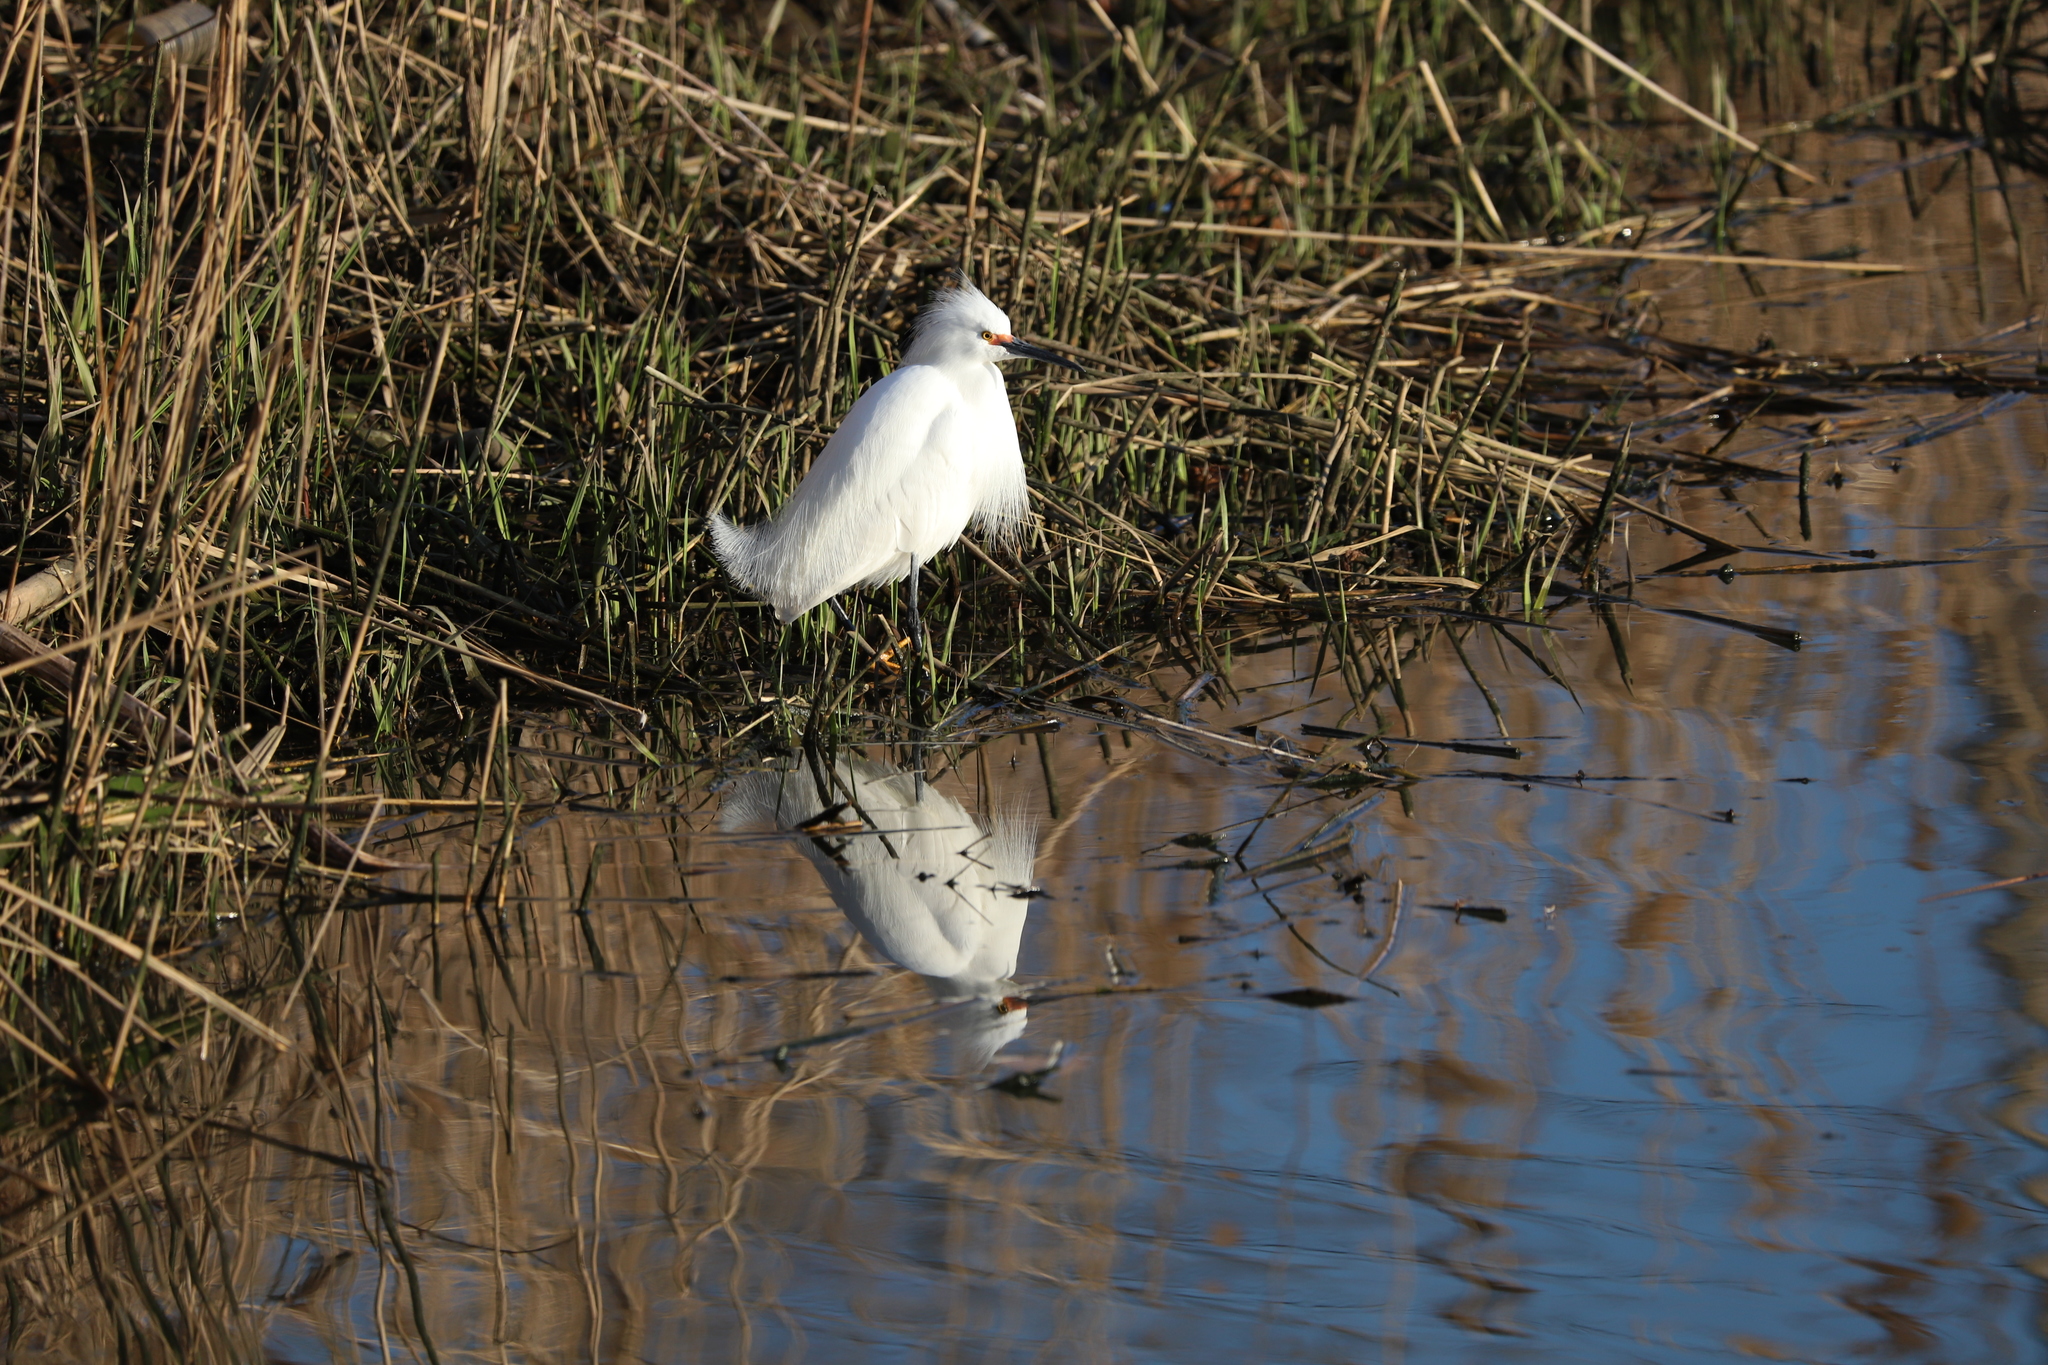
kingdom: Animalia
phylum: Chordata
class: Aves
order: Pelecaniformes
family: Ardeidae
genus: Egretta
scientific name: Egretta thula
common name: Snowy egret
